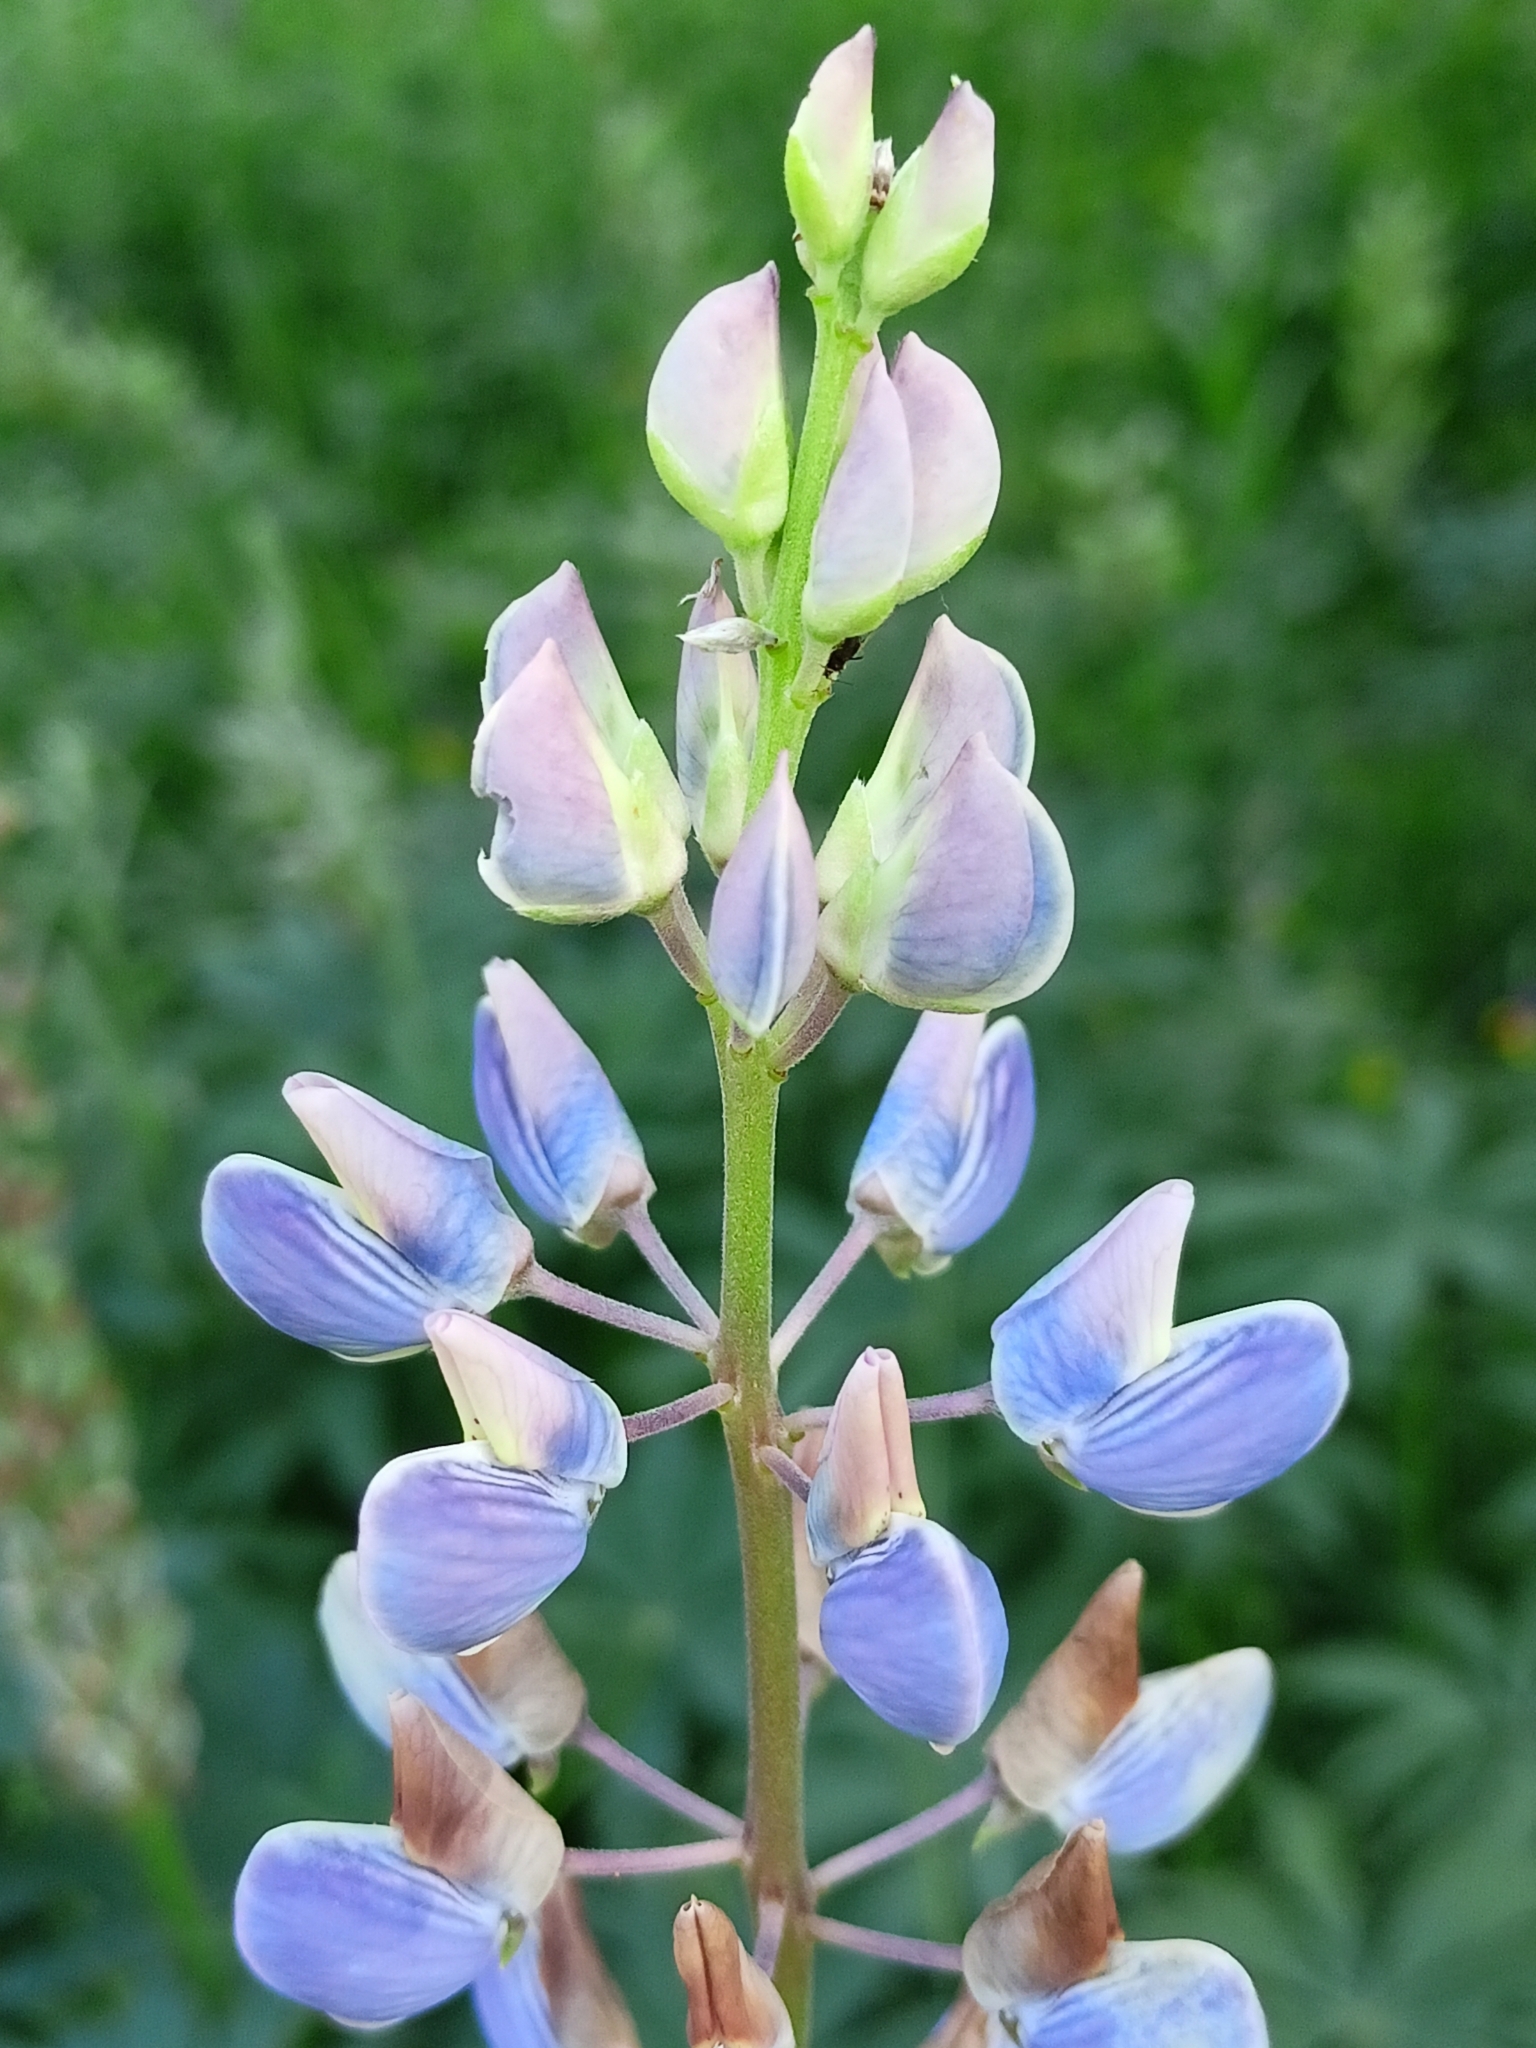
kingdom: Plantae
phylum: Tracheophyta
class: Magnoliopsida
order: Fabales
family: Fabaceae
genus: Lupinus
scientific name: Lupinus polyphyllus
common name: Garden lupin
